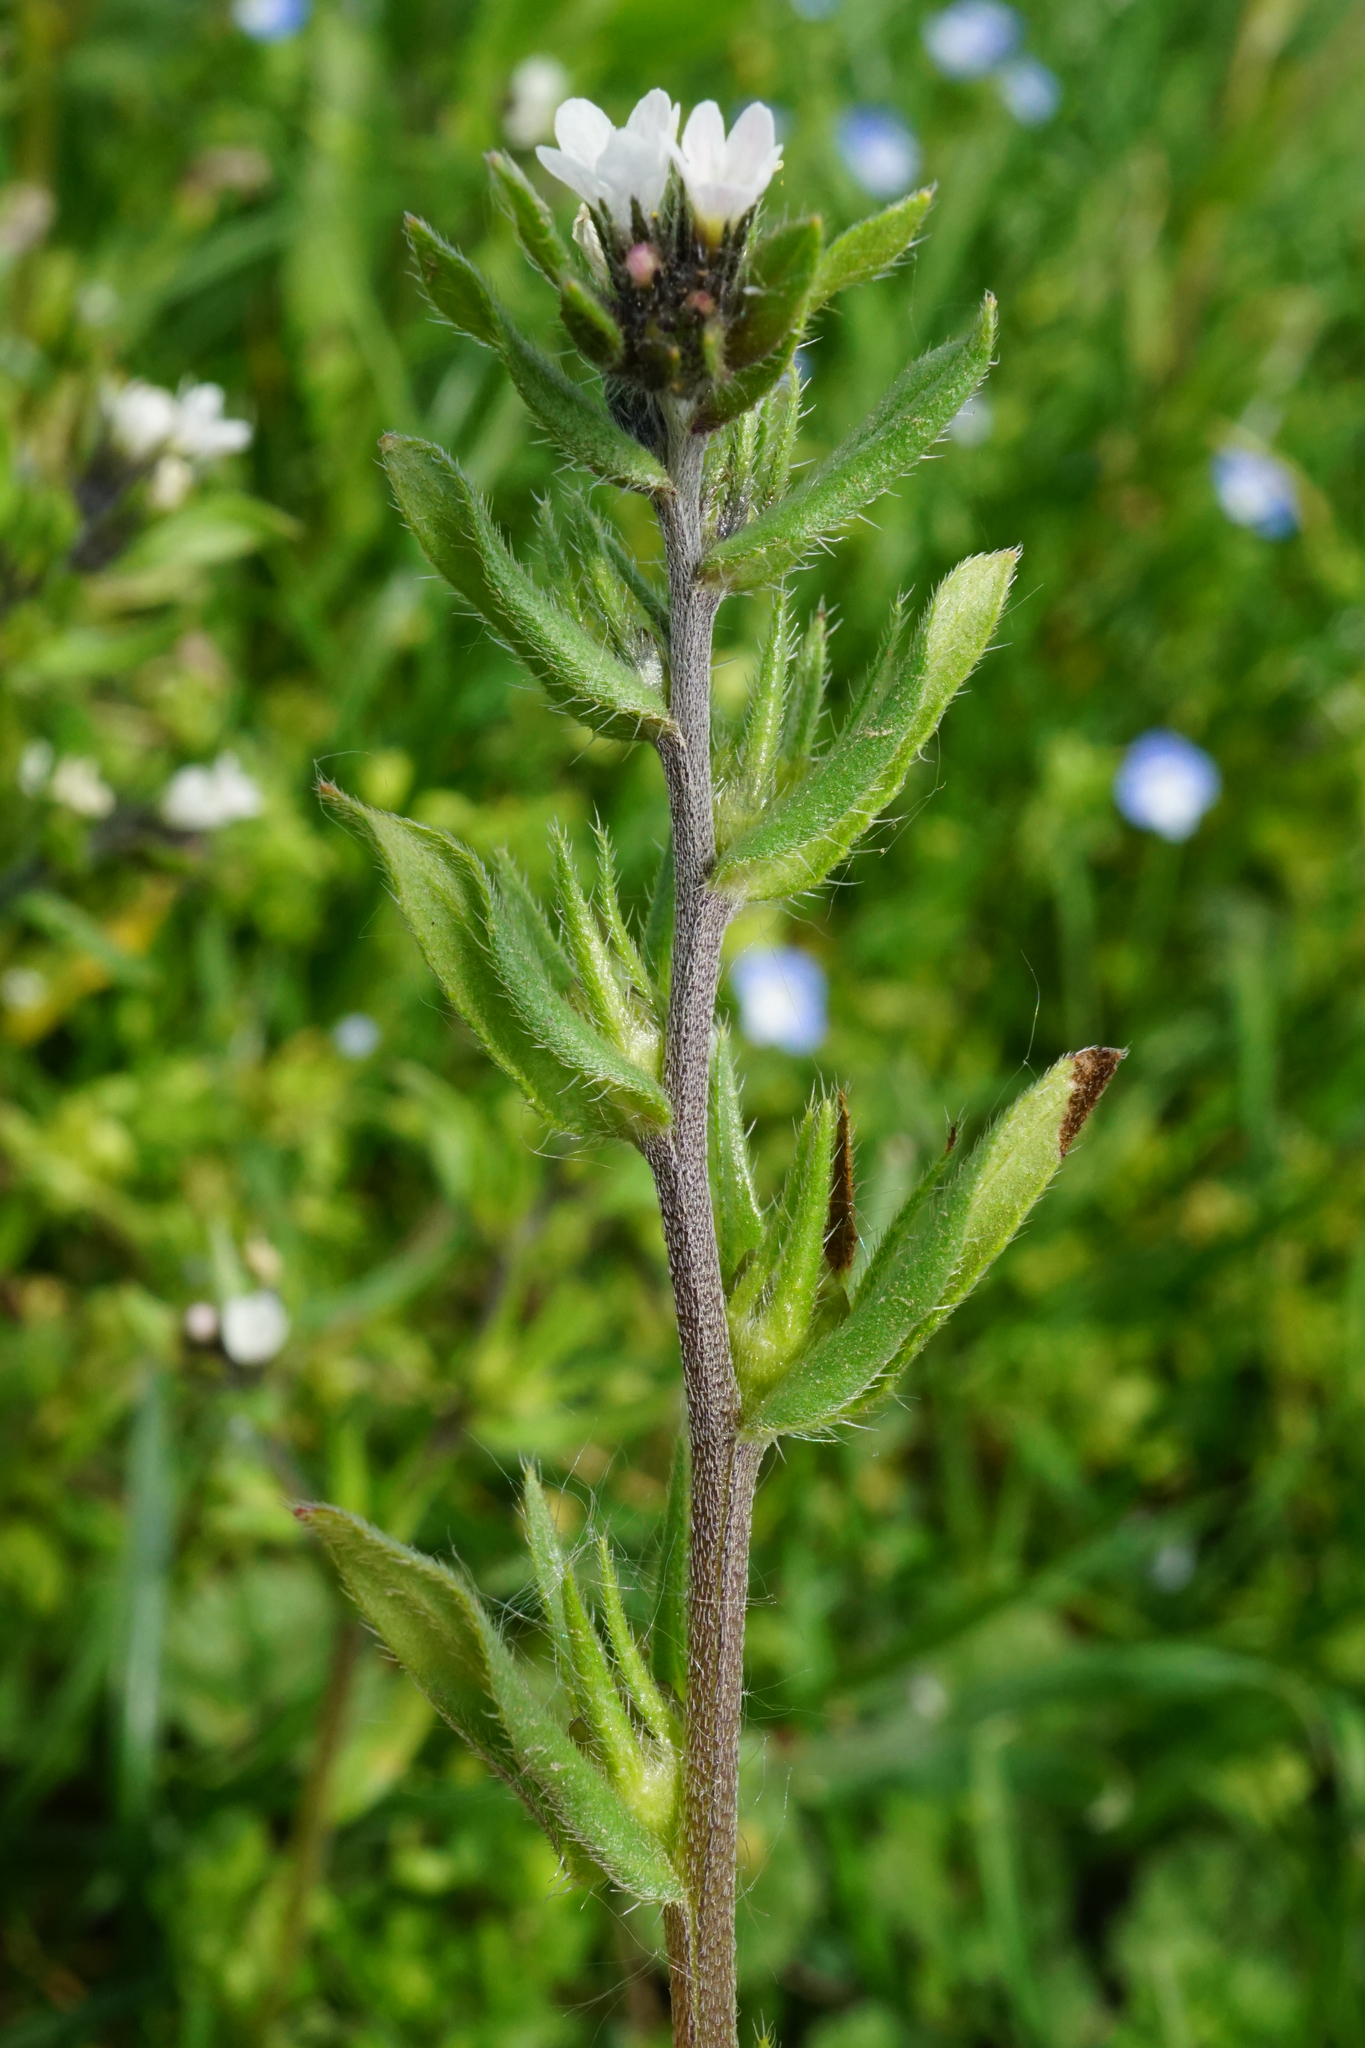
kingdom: Plantae
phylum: Tracheophyta
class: Magnoliopsida
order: Boraginales
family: Boraginaceae
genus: Buglossoides
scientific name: Buglossoides incrassata
